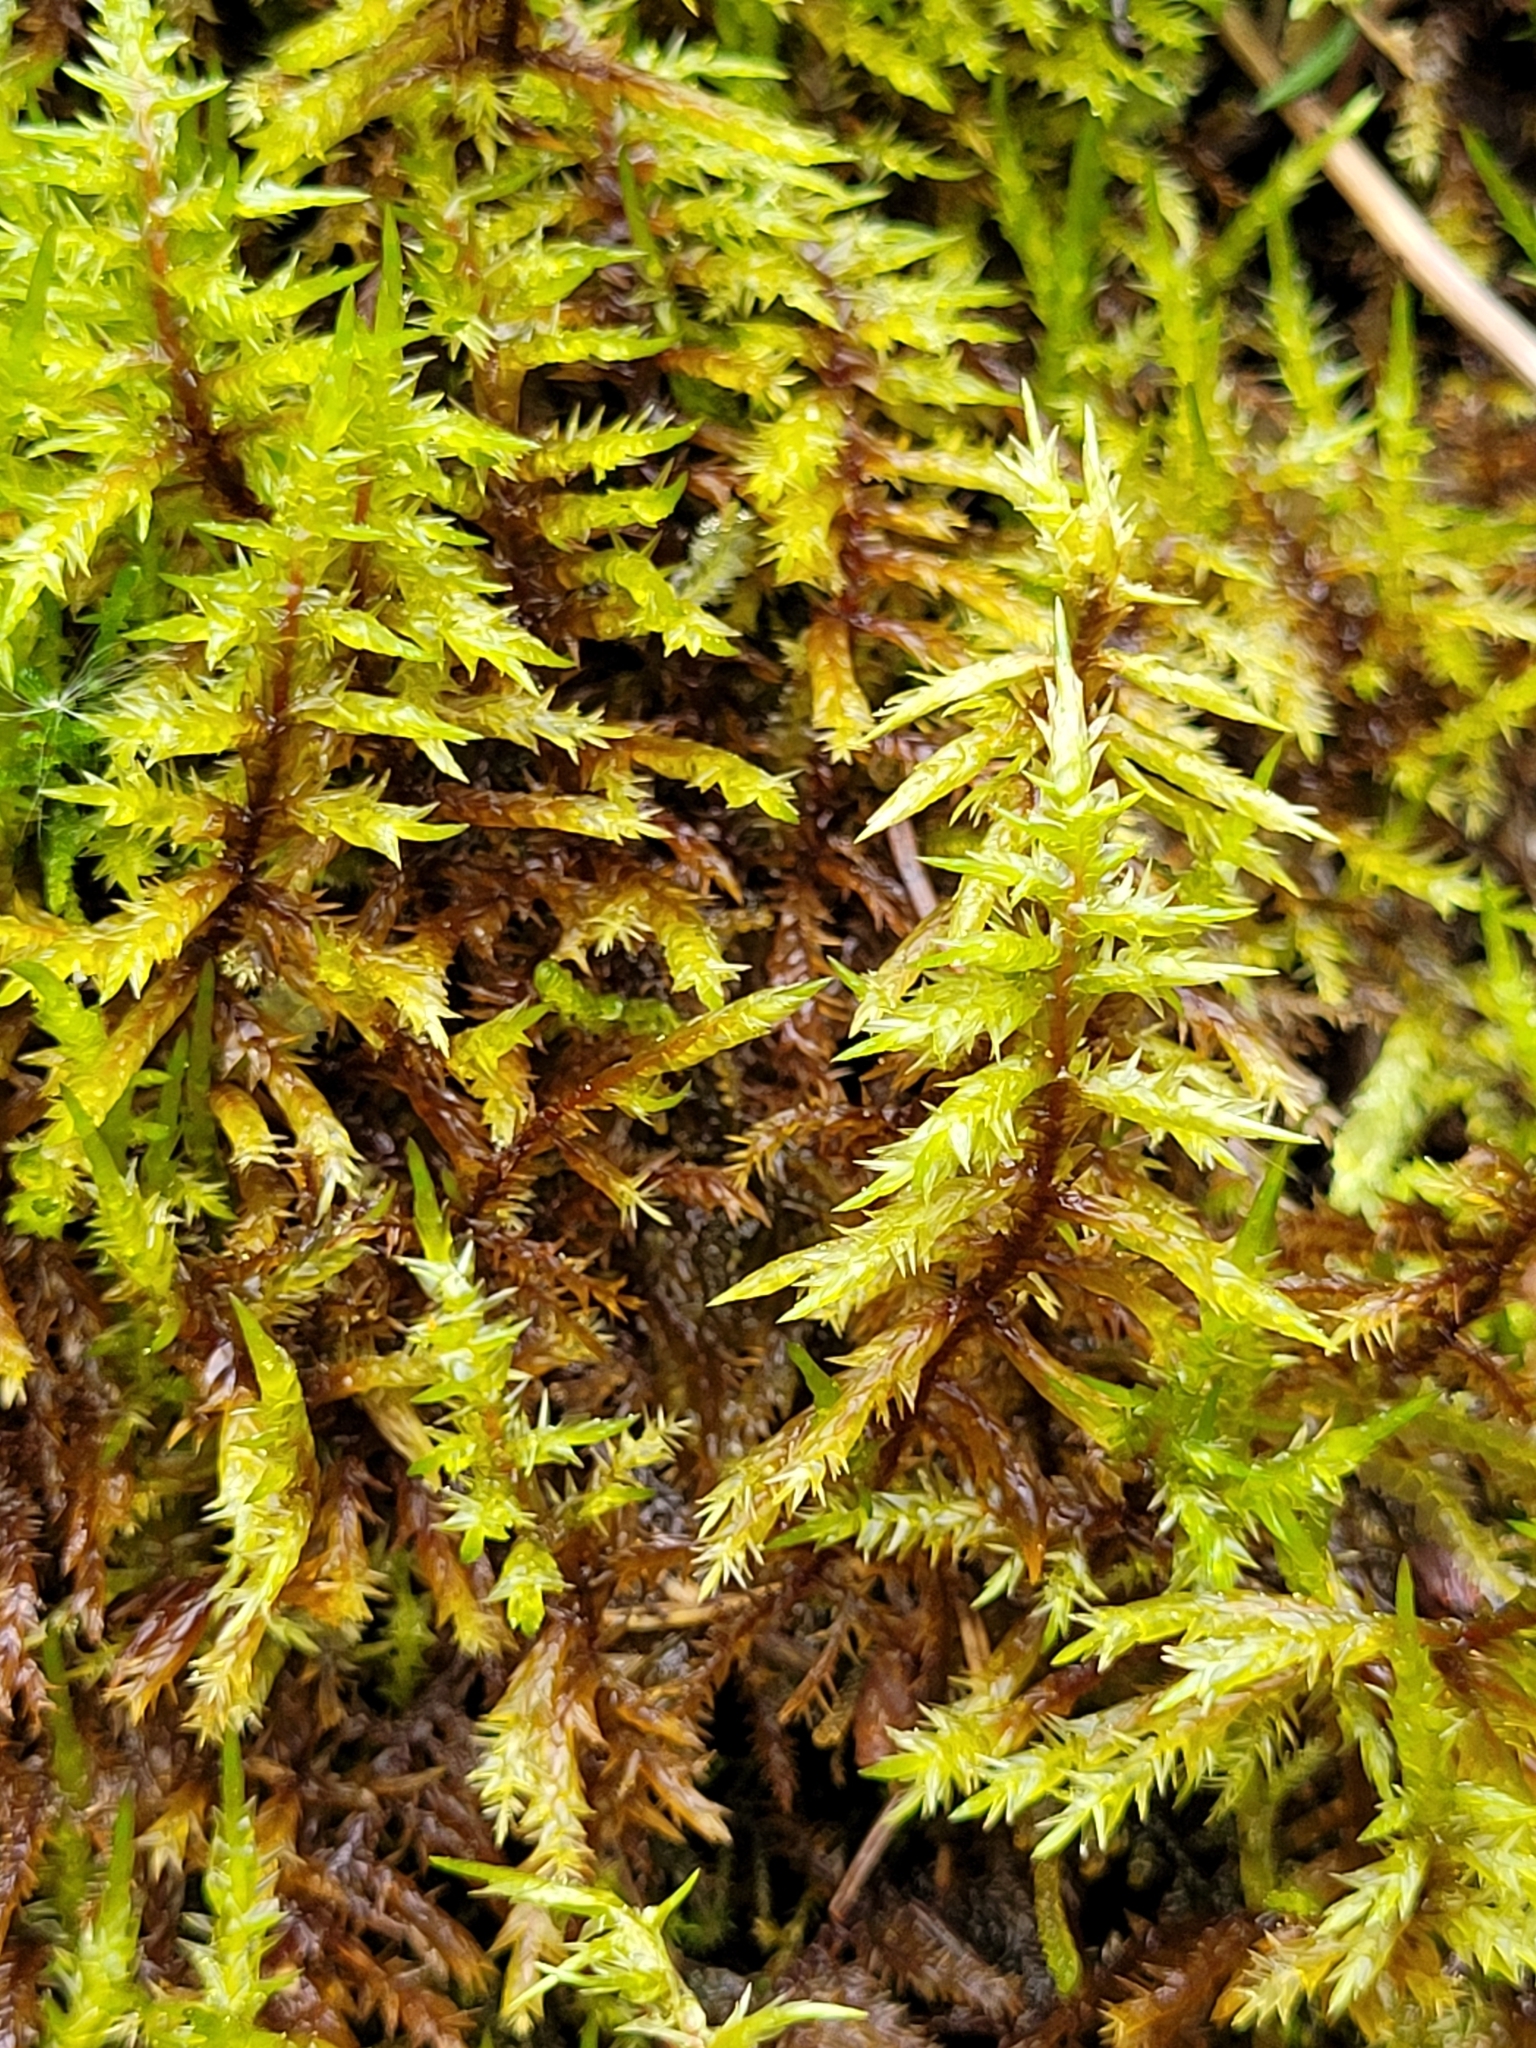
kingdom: Plantae
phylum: Bryophyta
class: Bryopsida
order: Hypnales
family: Pylaisiaceae
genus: Calliergonella
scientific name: Calliergonella cuspidata
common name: Common large wetland moss
